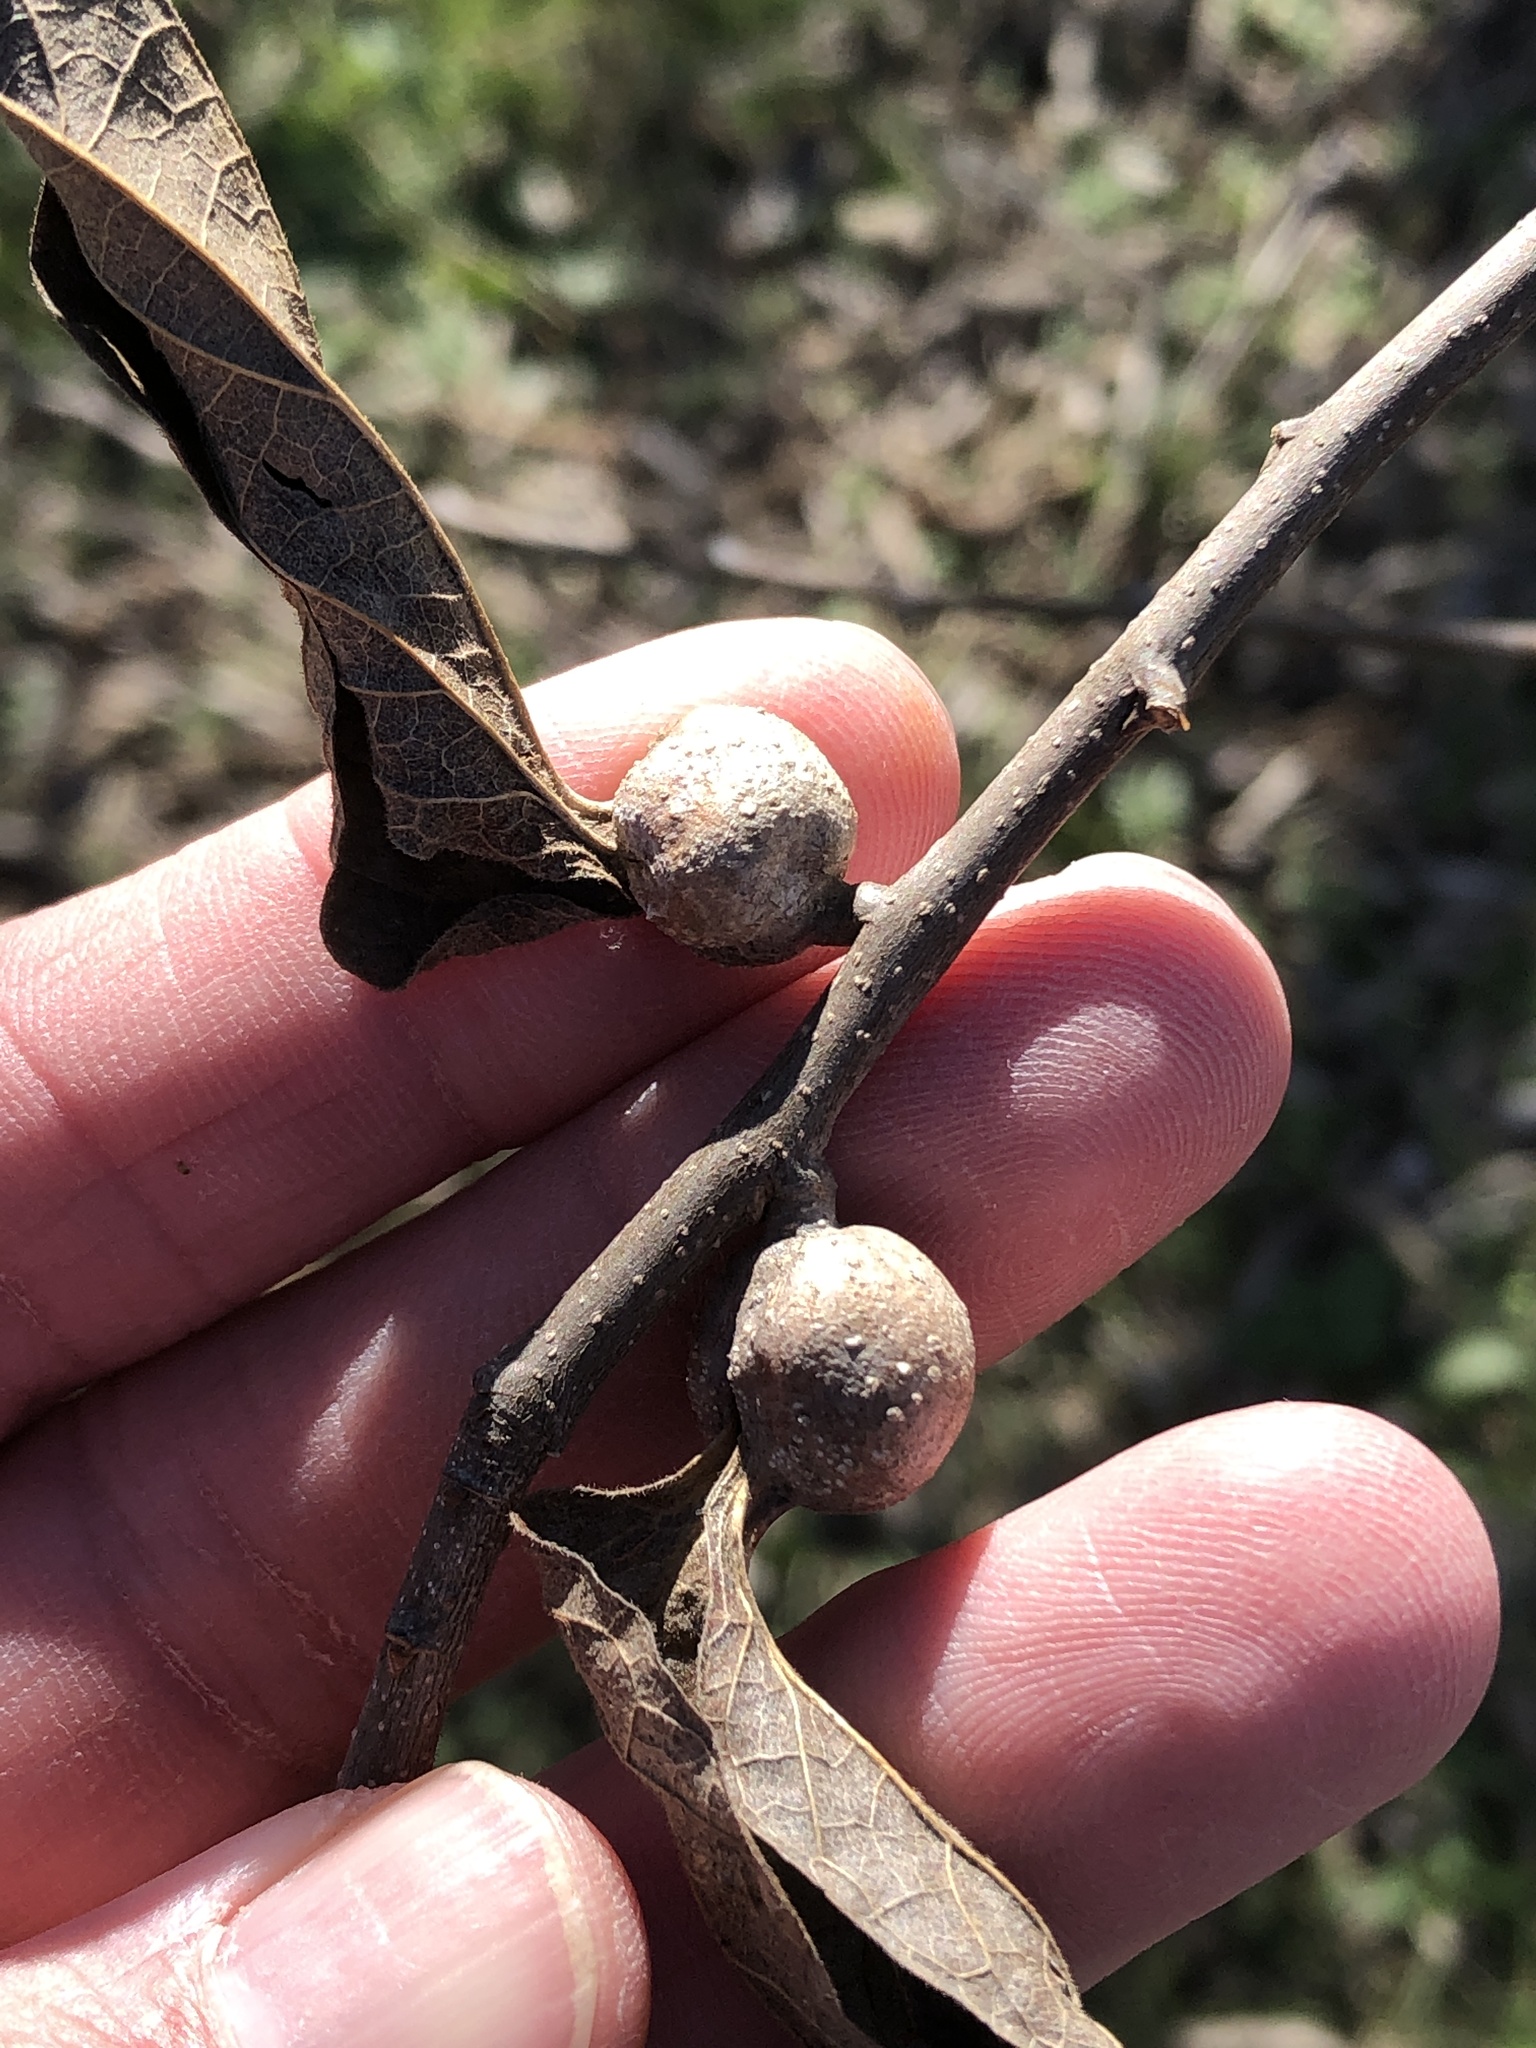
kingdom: Animalia
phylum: Arthropoda
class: Insecta
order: Hemiptera
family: Aphalaridae
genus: Pachypsylla
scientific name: Pachypsylla venusta
